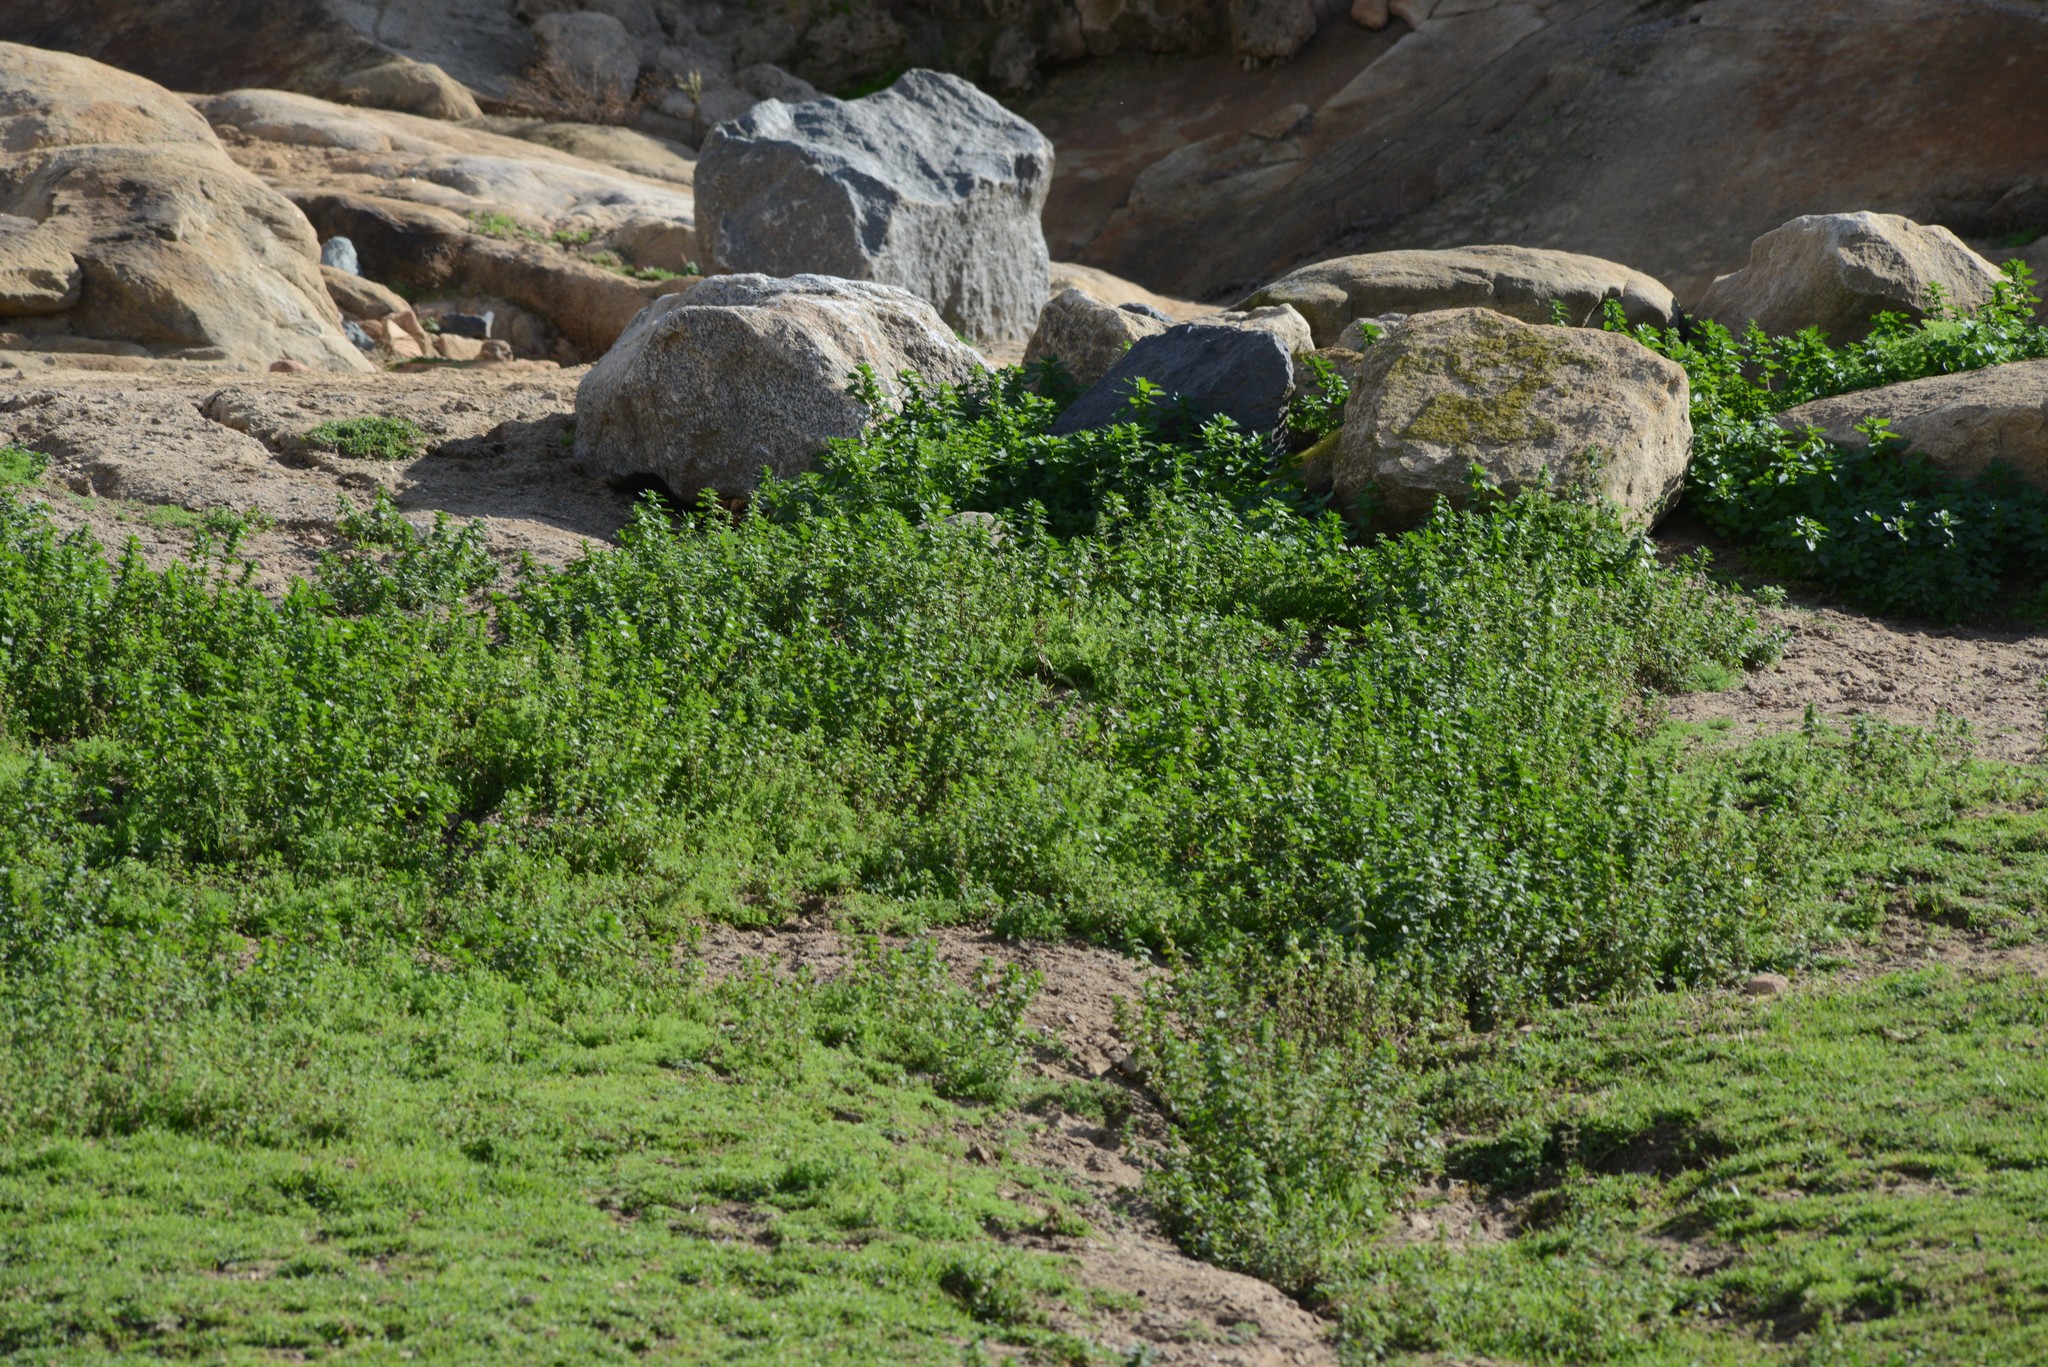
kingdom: Plantae
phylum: Tracheophyta
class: Magnoliopsida
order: Rosales
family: Urticaceae
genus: Urtica
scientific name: Urtica urens
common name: Dwarf nettle
